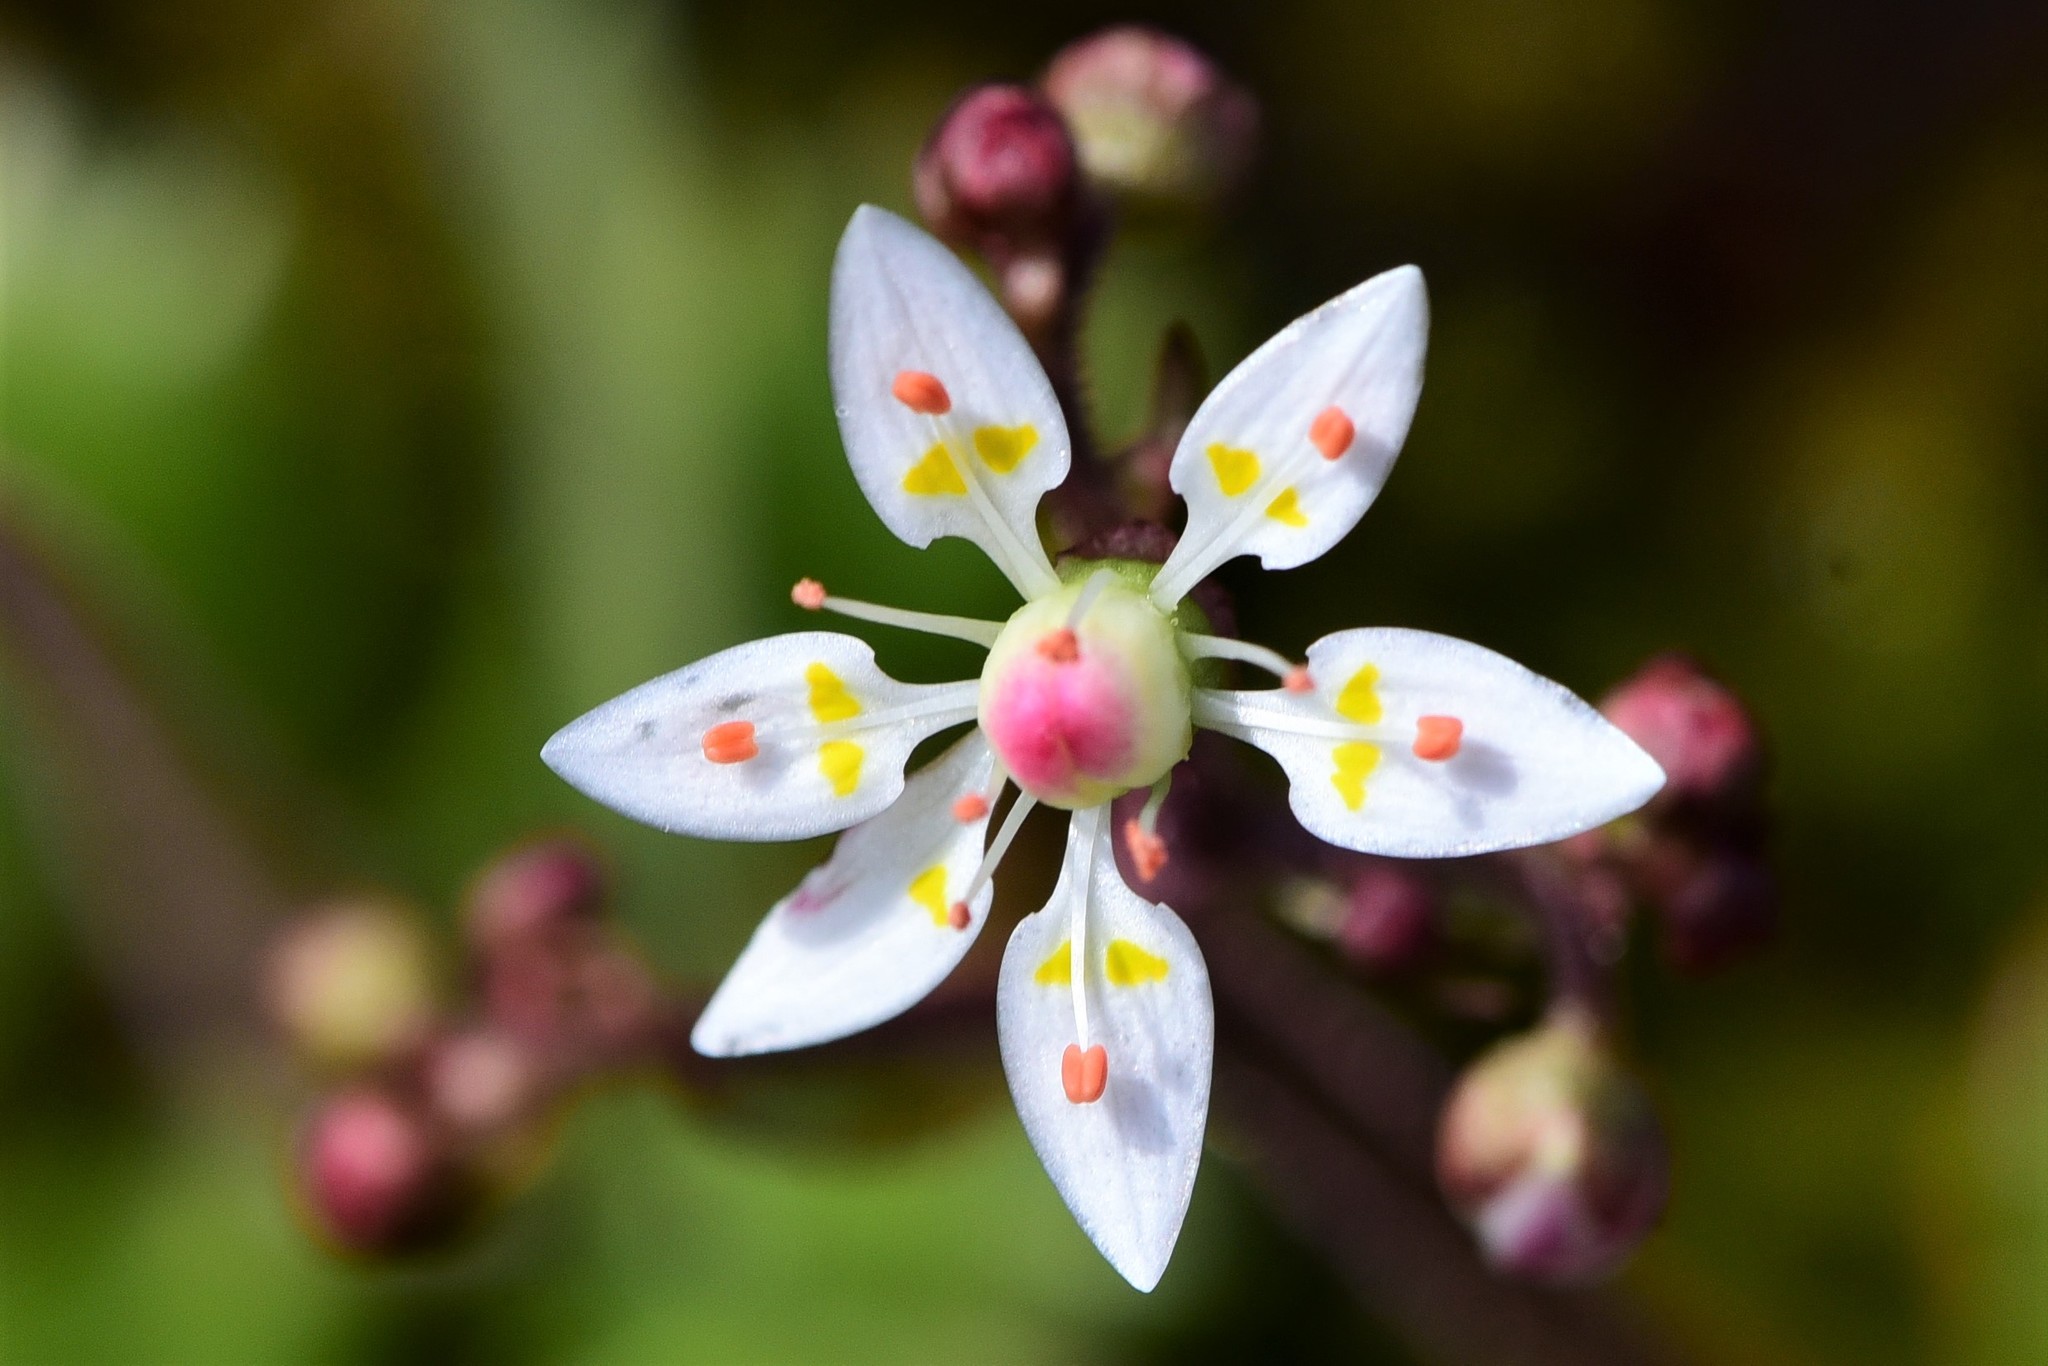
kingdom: Plantae
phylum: Tracheophyta
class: Magnoliopsida
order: Saxifragales
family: Saxifragaceae
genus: Micranthes
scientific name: Micranthes ferruginea
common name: Rusty saxifrage
